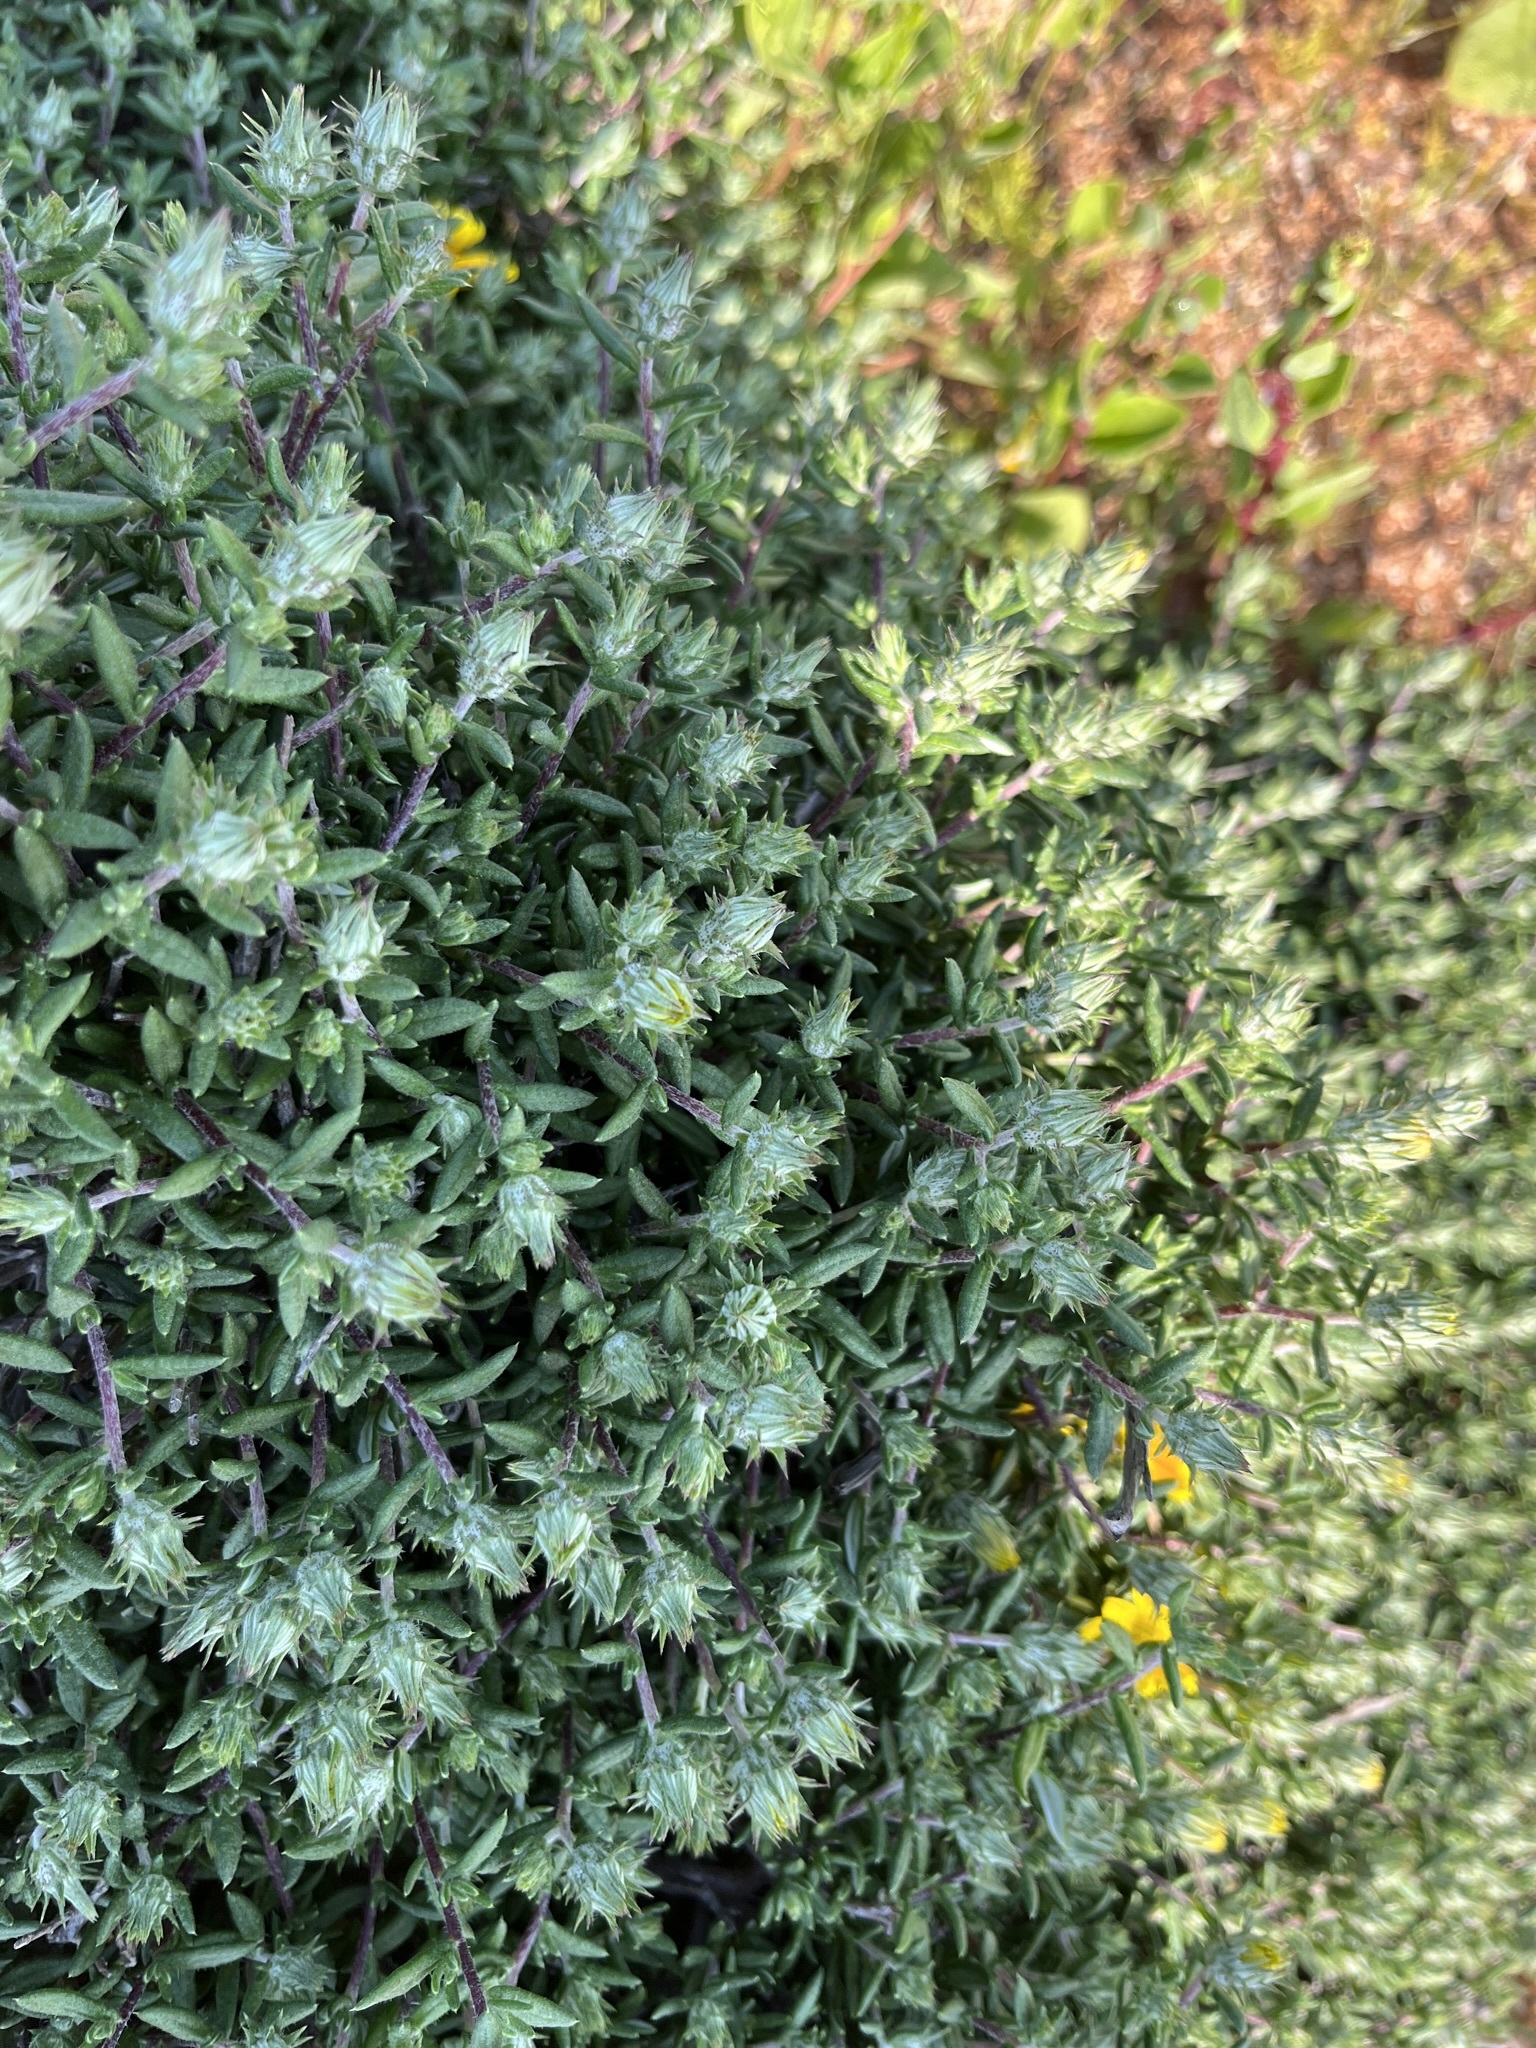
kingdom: Plantae
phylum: Tracheophyta
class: Magnoliopsida
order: Asterales
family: Asteraceae
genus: Gorteria
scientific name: Gorteria alienata
